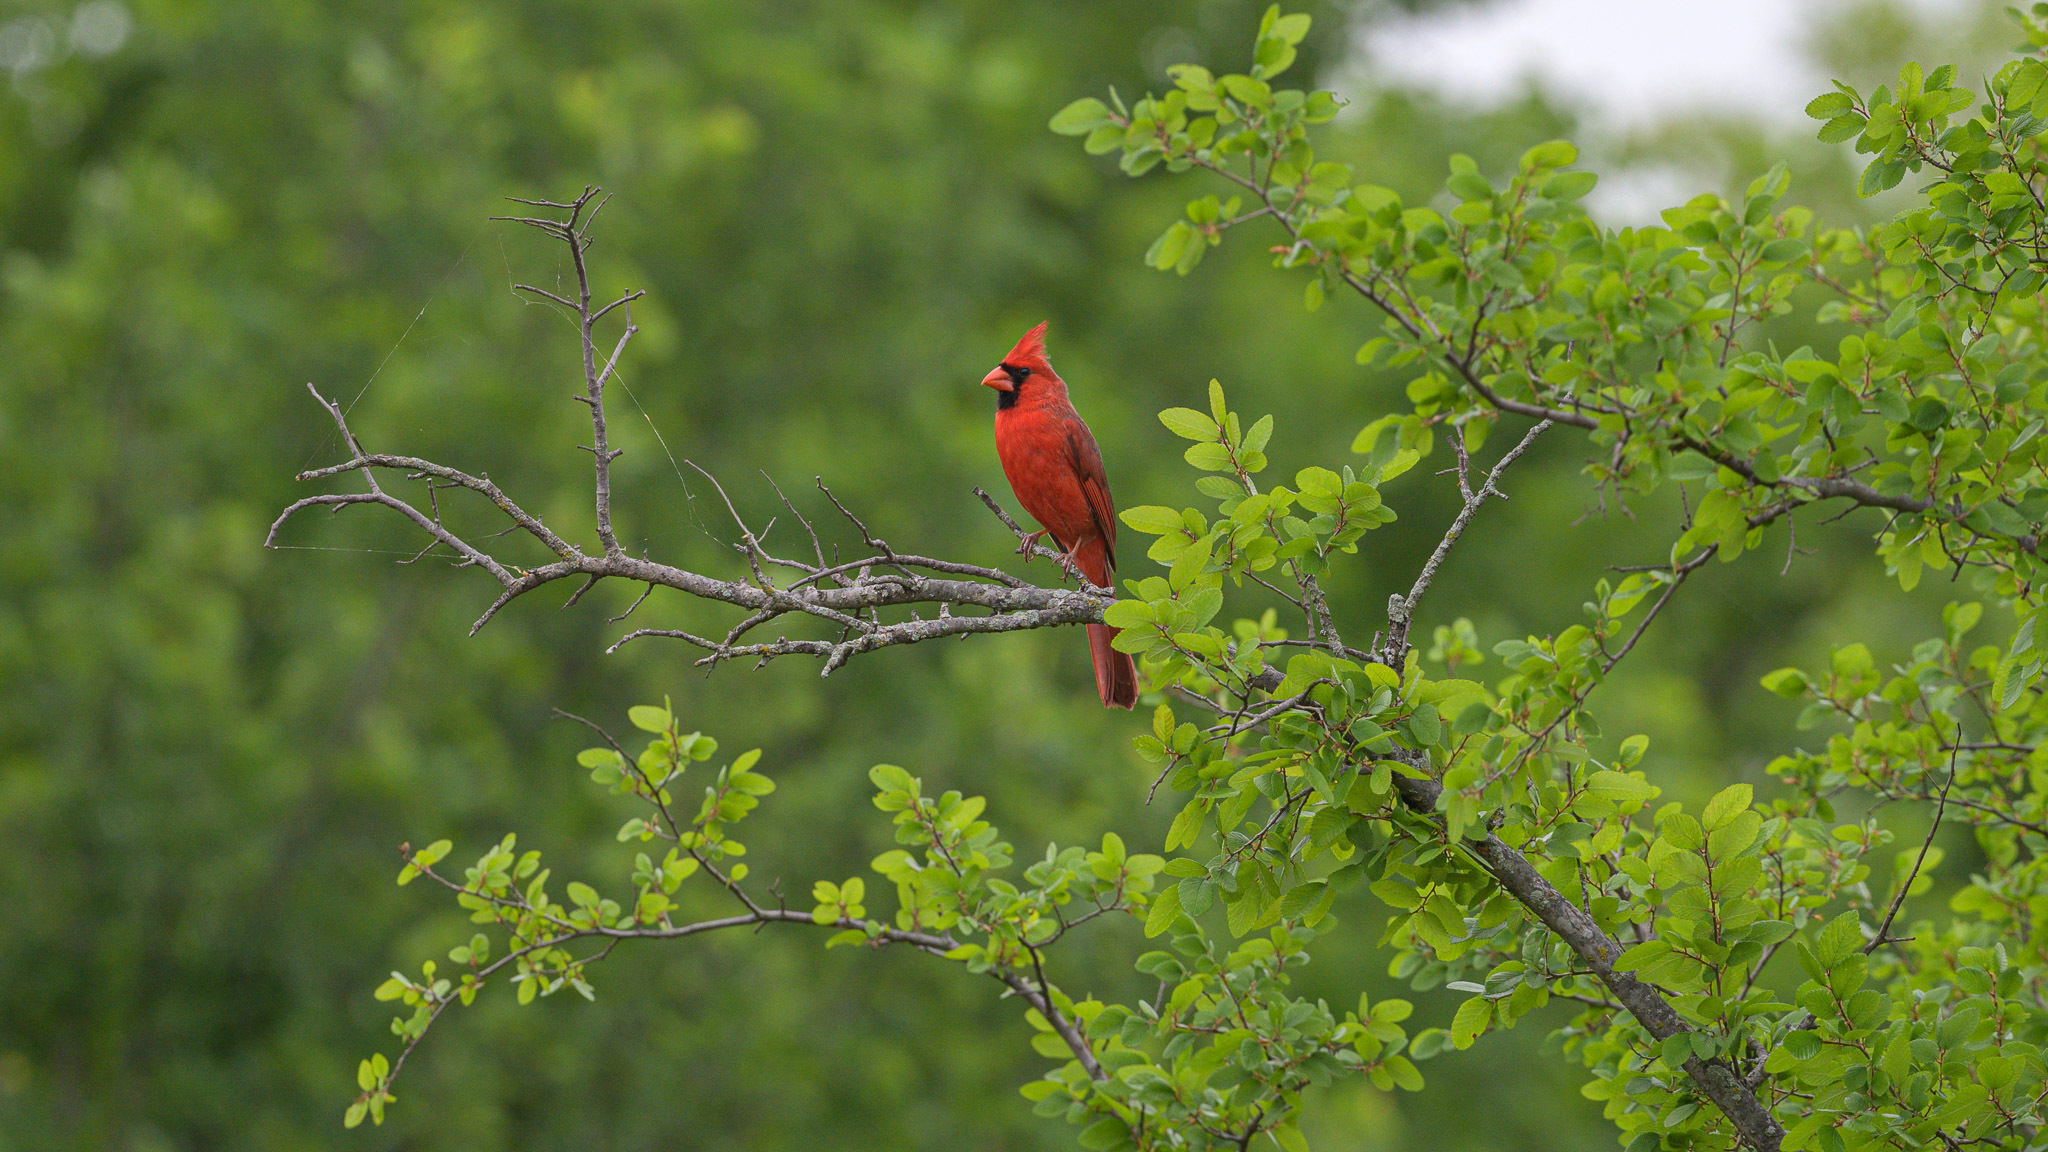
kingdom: Animalia
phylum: Chordata
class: Aves
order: Passeriformes
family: Cardinalidae
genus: Cardinalis
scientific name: Cardinalis cardinalis
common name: Northern cardinal
